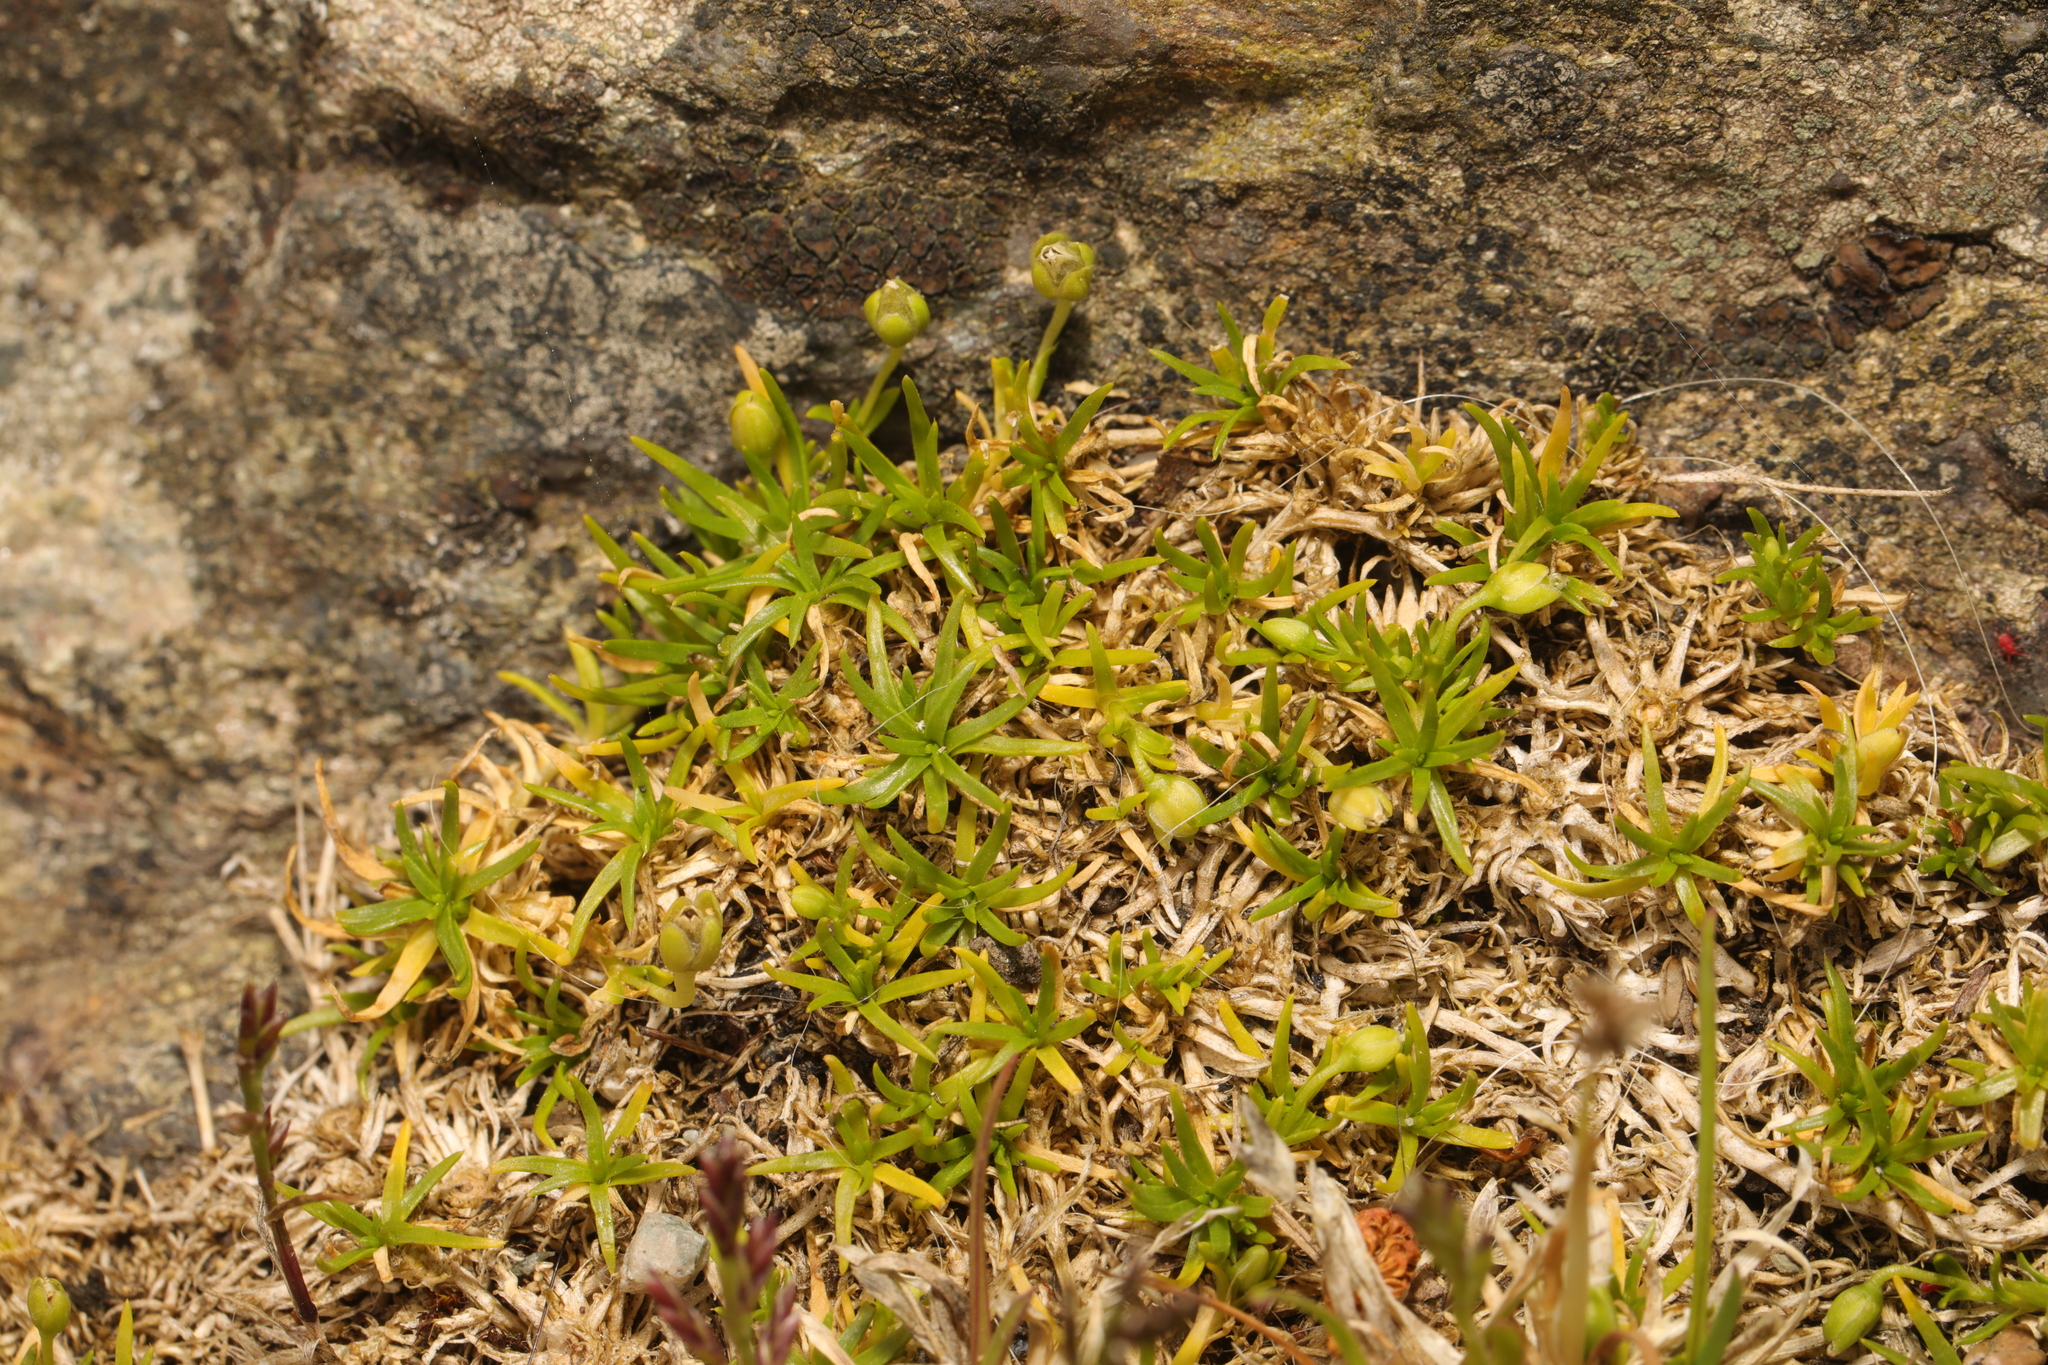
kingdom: Plantae
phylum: Tracheophyta
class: Magnoliopsida
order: Caryophyllales
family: Caryophyllaceae
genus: Sagina
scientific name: Sagina procumbens
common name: Procumbent pearlwort
